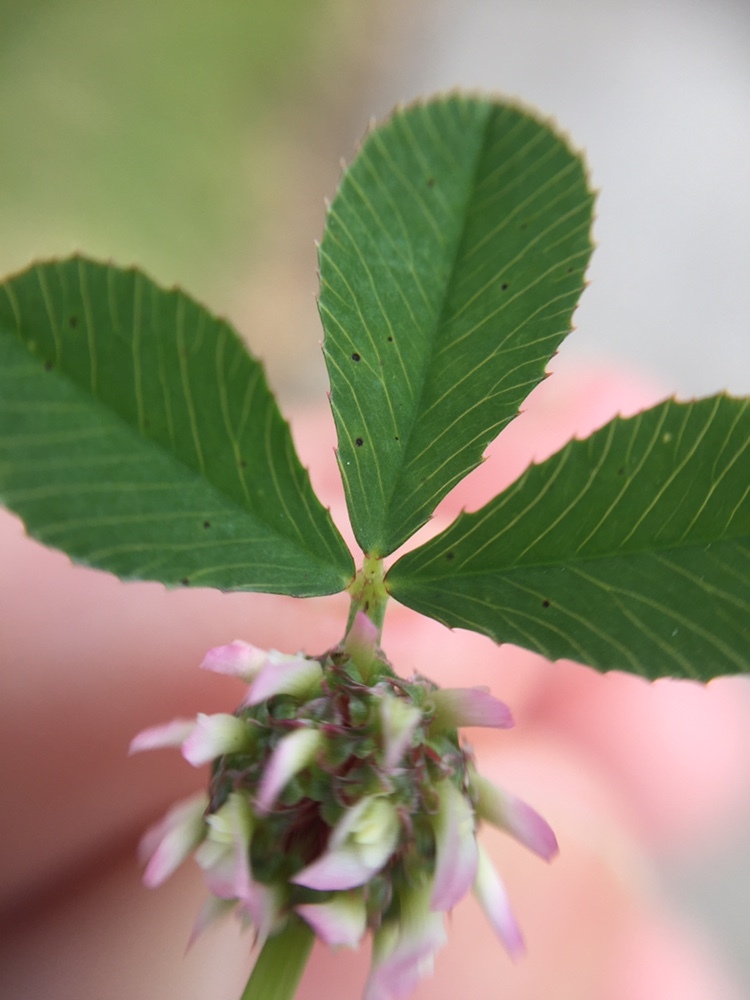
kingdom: Plantae
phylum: Tracheophyta
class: Magnoliopsida
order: Fabales
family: Fabaceae
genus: Trifolium
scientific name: Trifolium glomeratum
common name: Clustered clover
